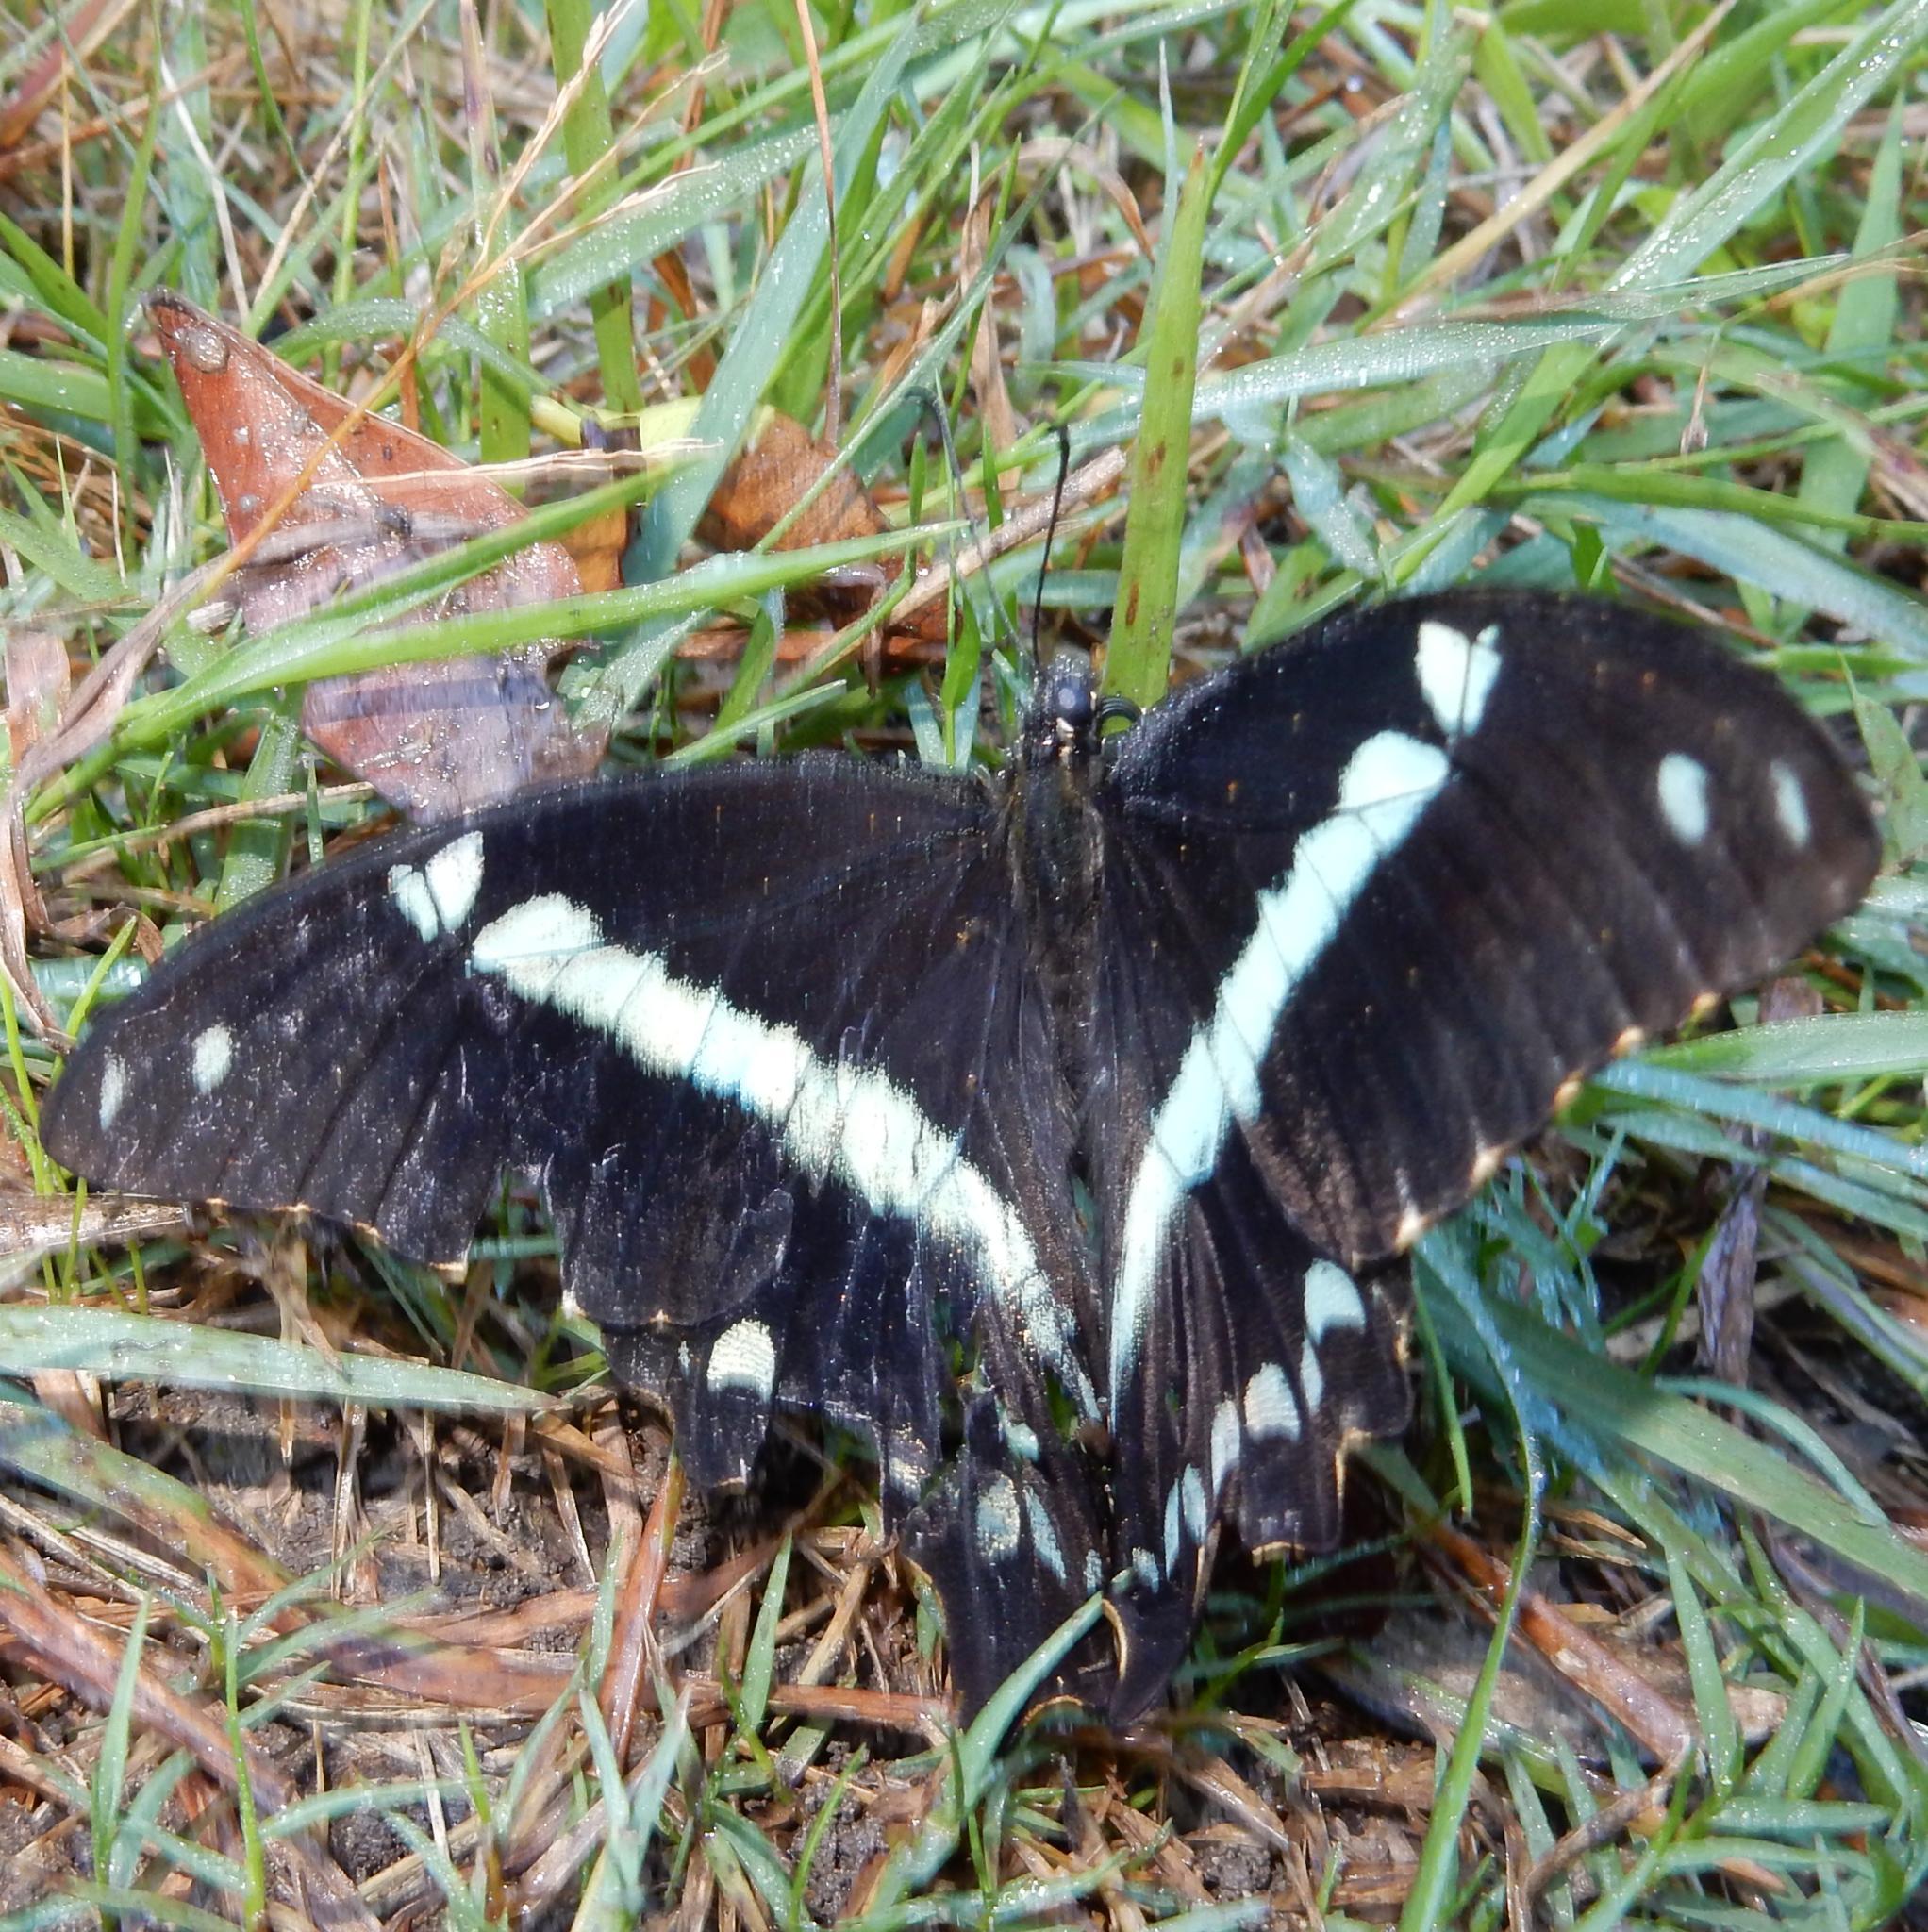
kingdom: Animalia
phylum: Arthropoda
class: Insecta
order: Lepidoptera
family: Papilionidae
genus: Papilio
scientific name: Papilio nireus
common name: Greenbanded swallowtail
